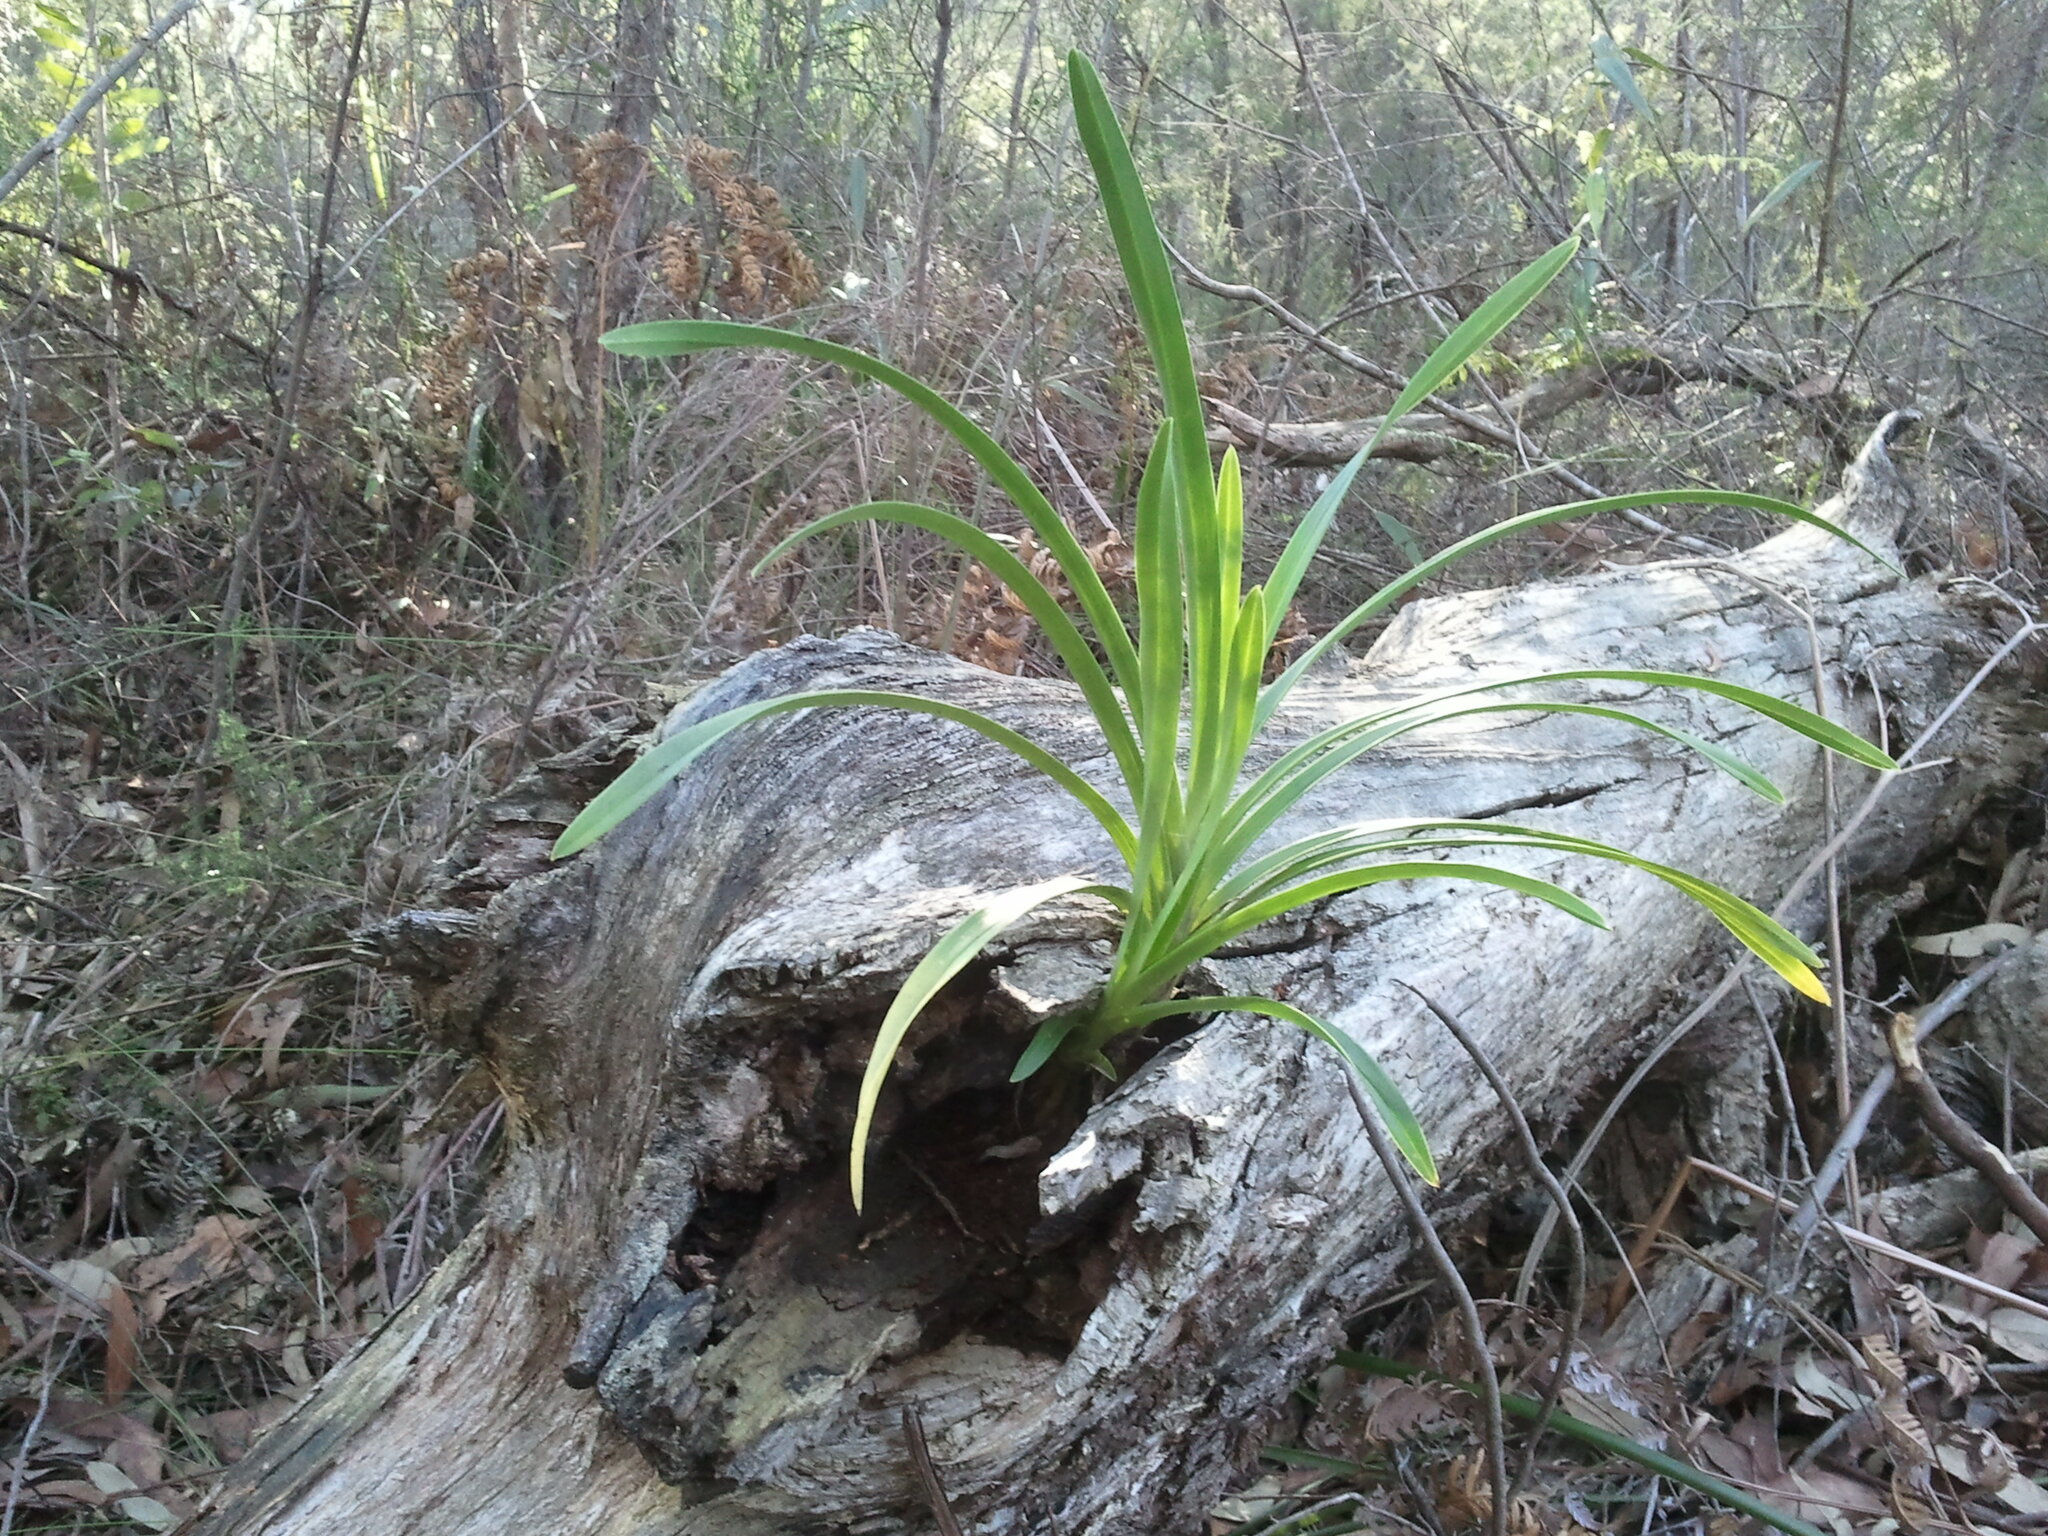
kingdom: Plantae
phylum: Tracheophyta
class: Liliopsida
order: Asparagales
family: Orchidaceae
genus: Cymbidium
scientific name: Cymbidium suave
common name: Snake orchid
